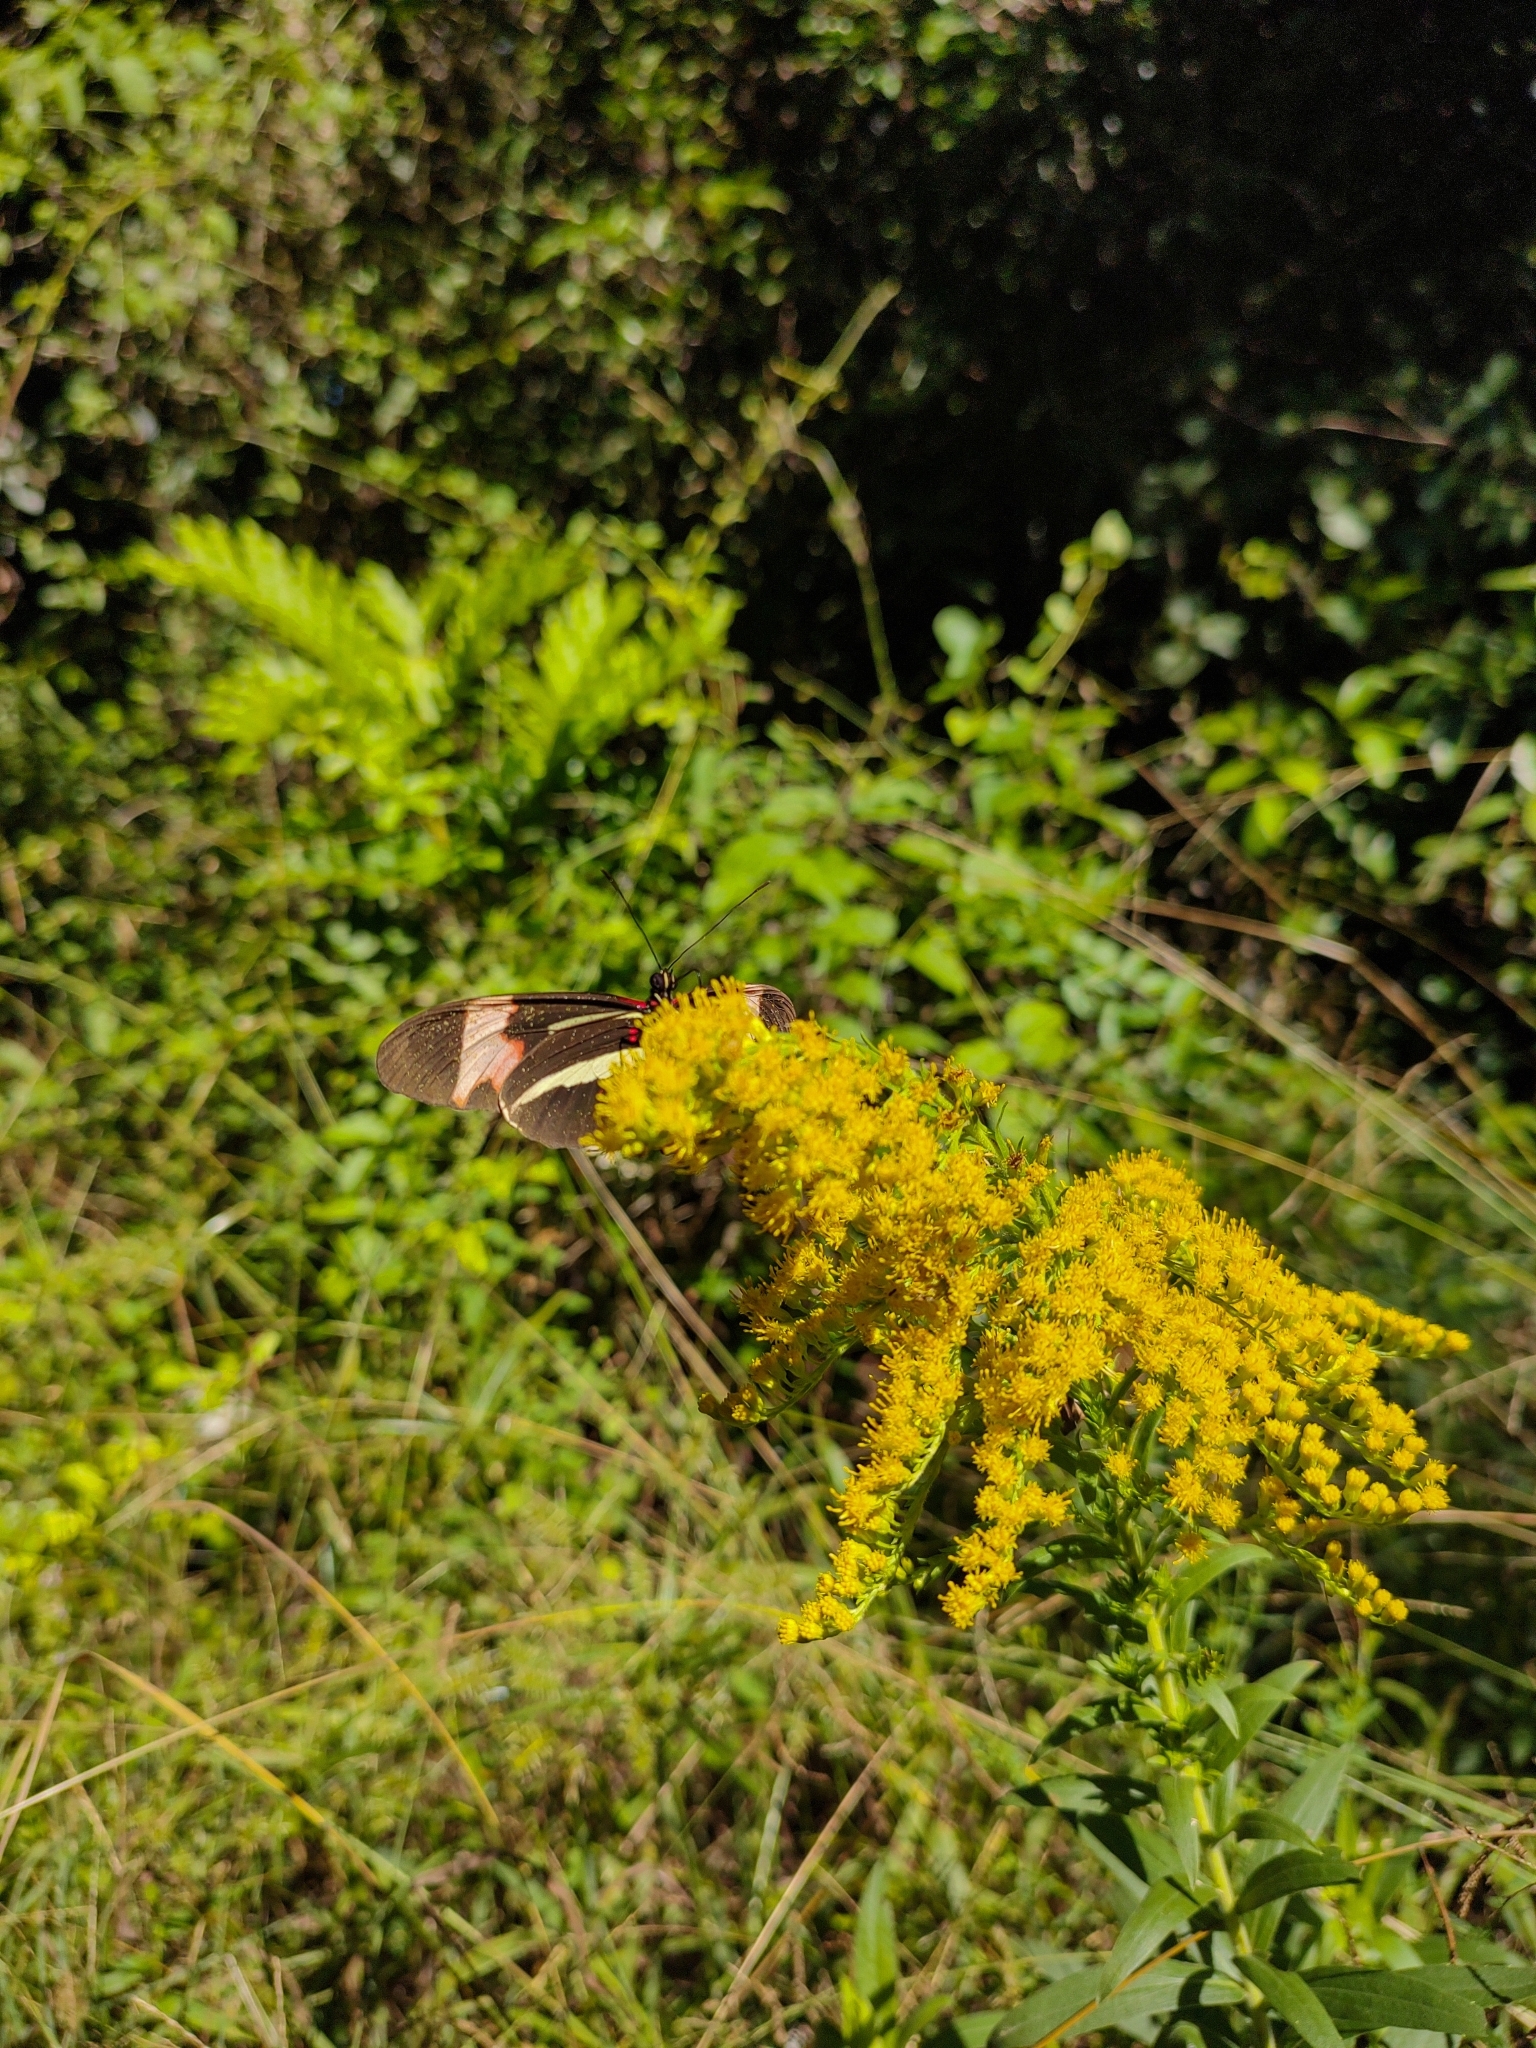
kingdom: Animalia
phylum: Arthropoda
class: Insecta
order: Lepidoptera
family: Nymphalidae
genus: Heliconius
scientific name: Heliconius erato
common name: Common patch longwing
